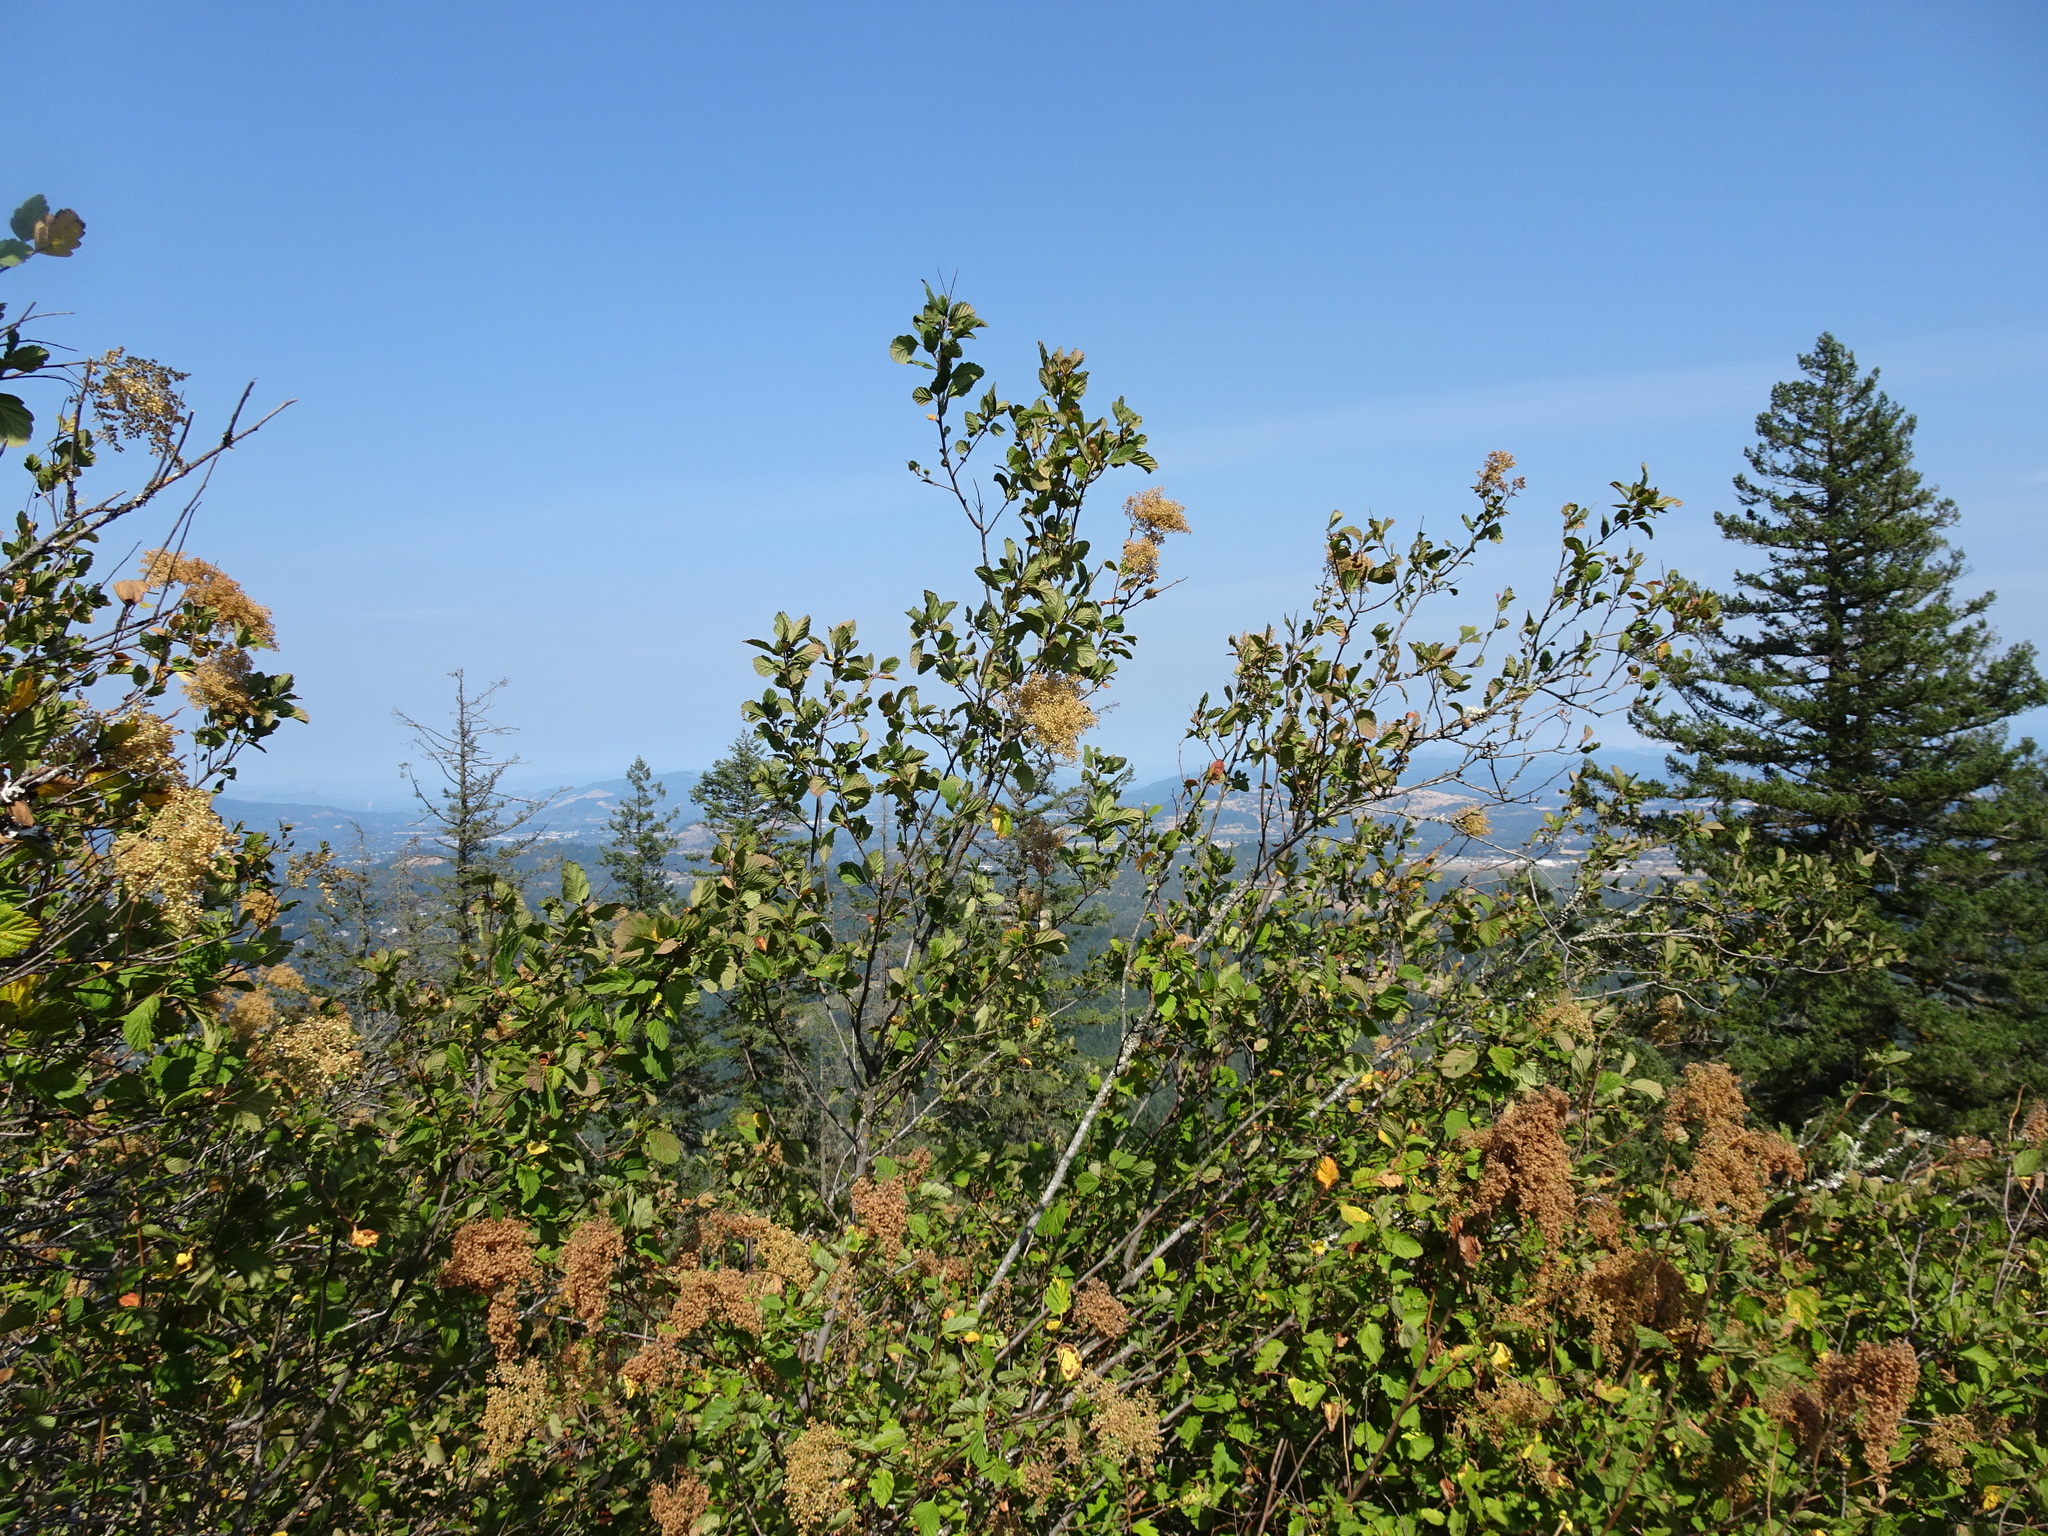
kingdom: Plantae
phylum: Tracheophyta
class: Magnoliopsida
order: Rosales
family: Rosaceae
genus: Holodiscus
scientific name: Holodiscus discolor
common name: Oceanspray
